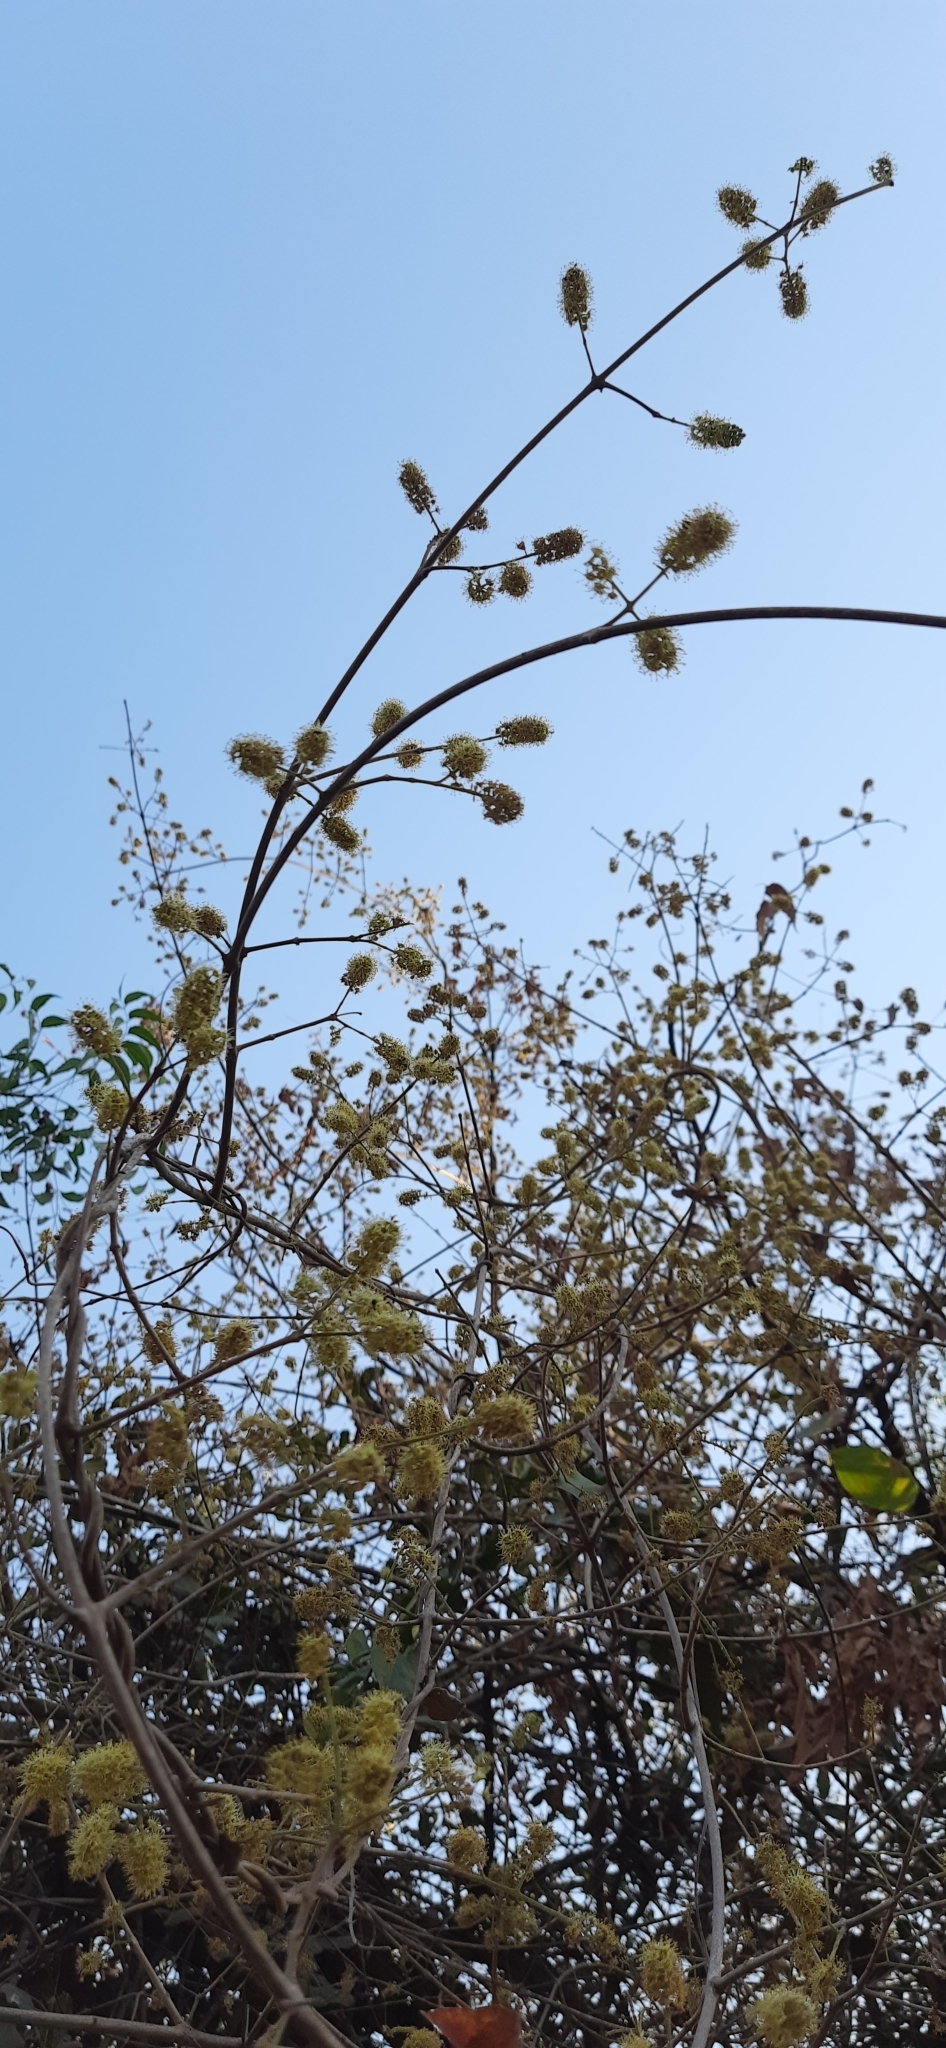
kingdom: Plantae
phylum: Tracheophyta
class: Magnoliopsida
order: Myrtales
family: Combretaceae
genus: Combretum
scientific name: Combretum albidum
